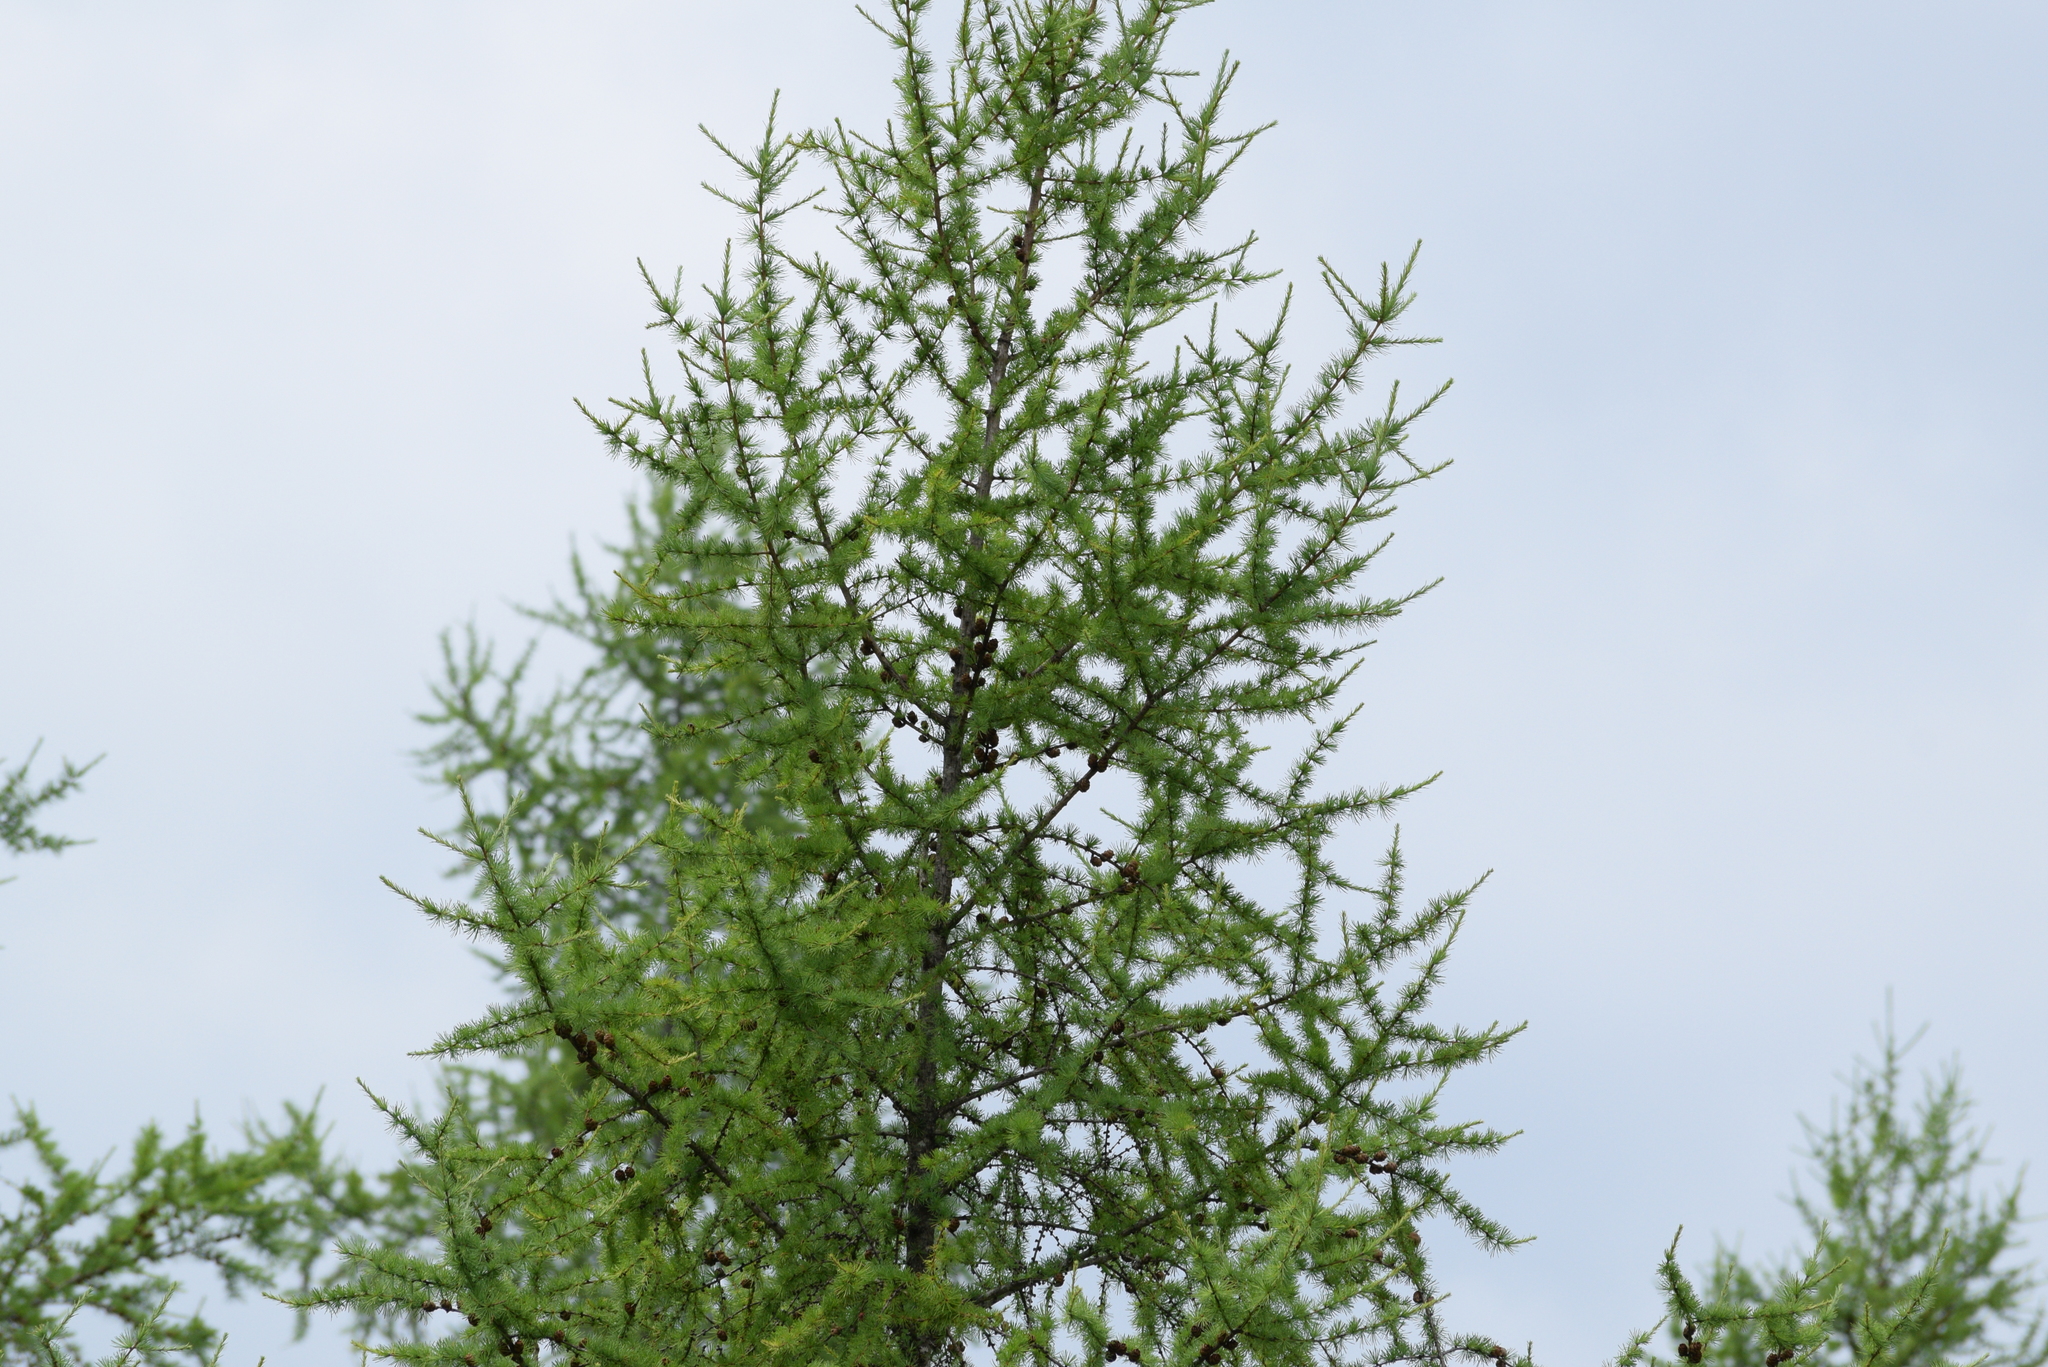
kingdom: Plantae
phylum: Tracheophyta
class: Pinopsida
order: Pinales
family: Pinaceae
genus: Larix
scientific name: Larix laricina
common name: American larch
